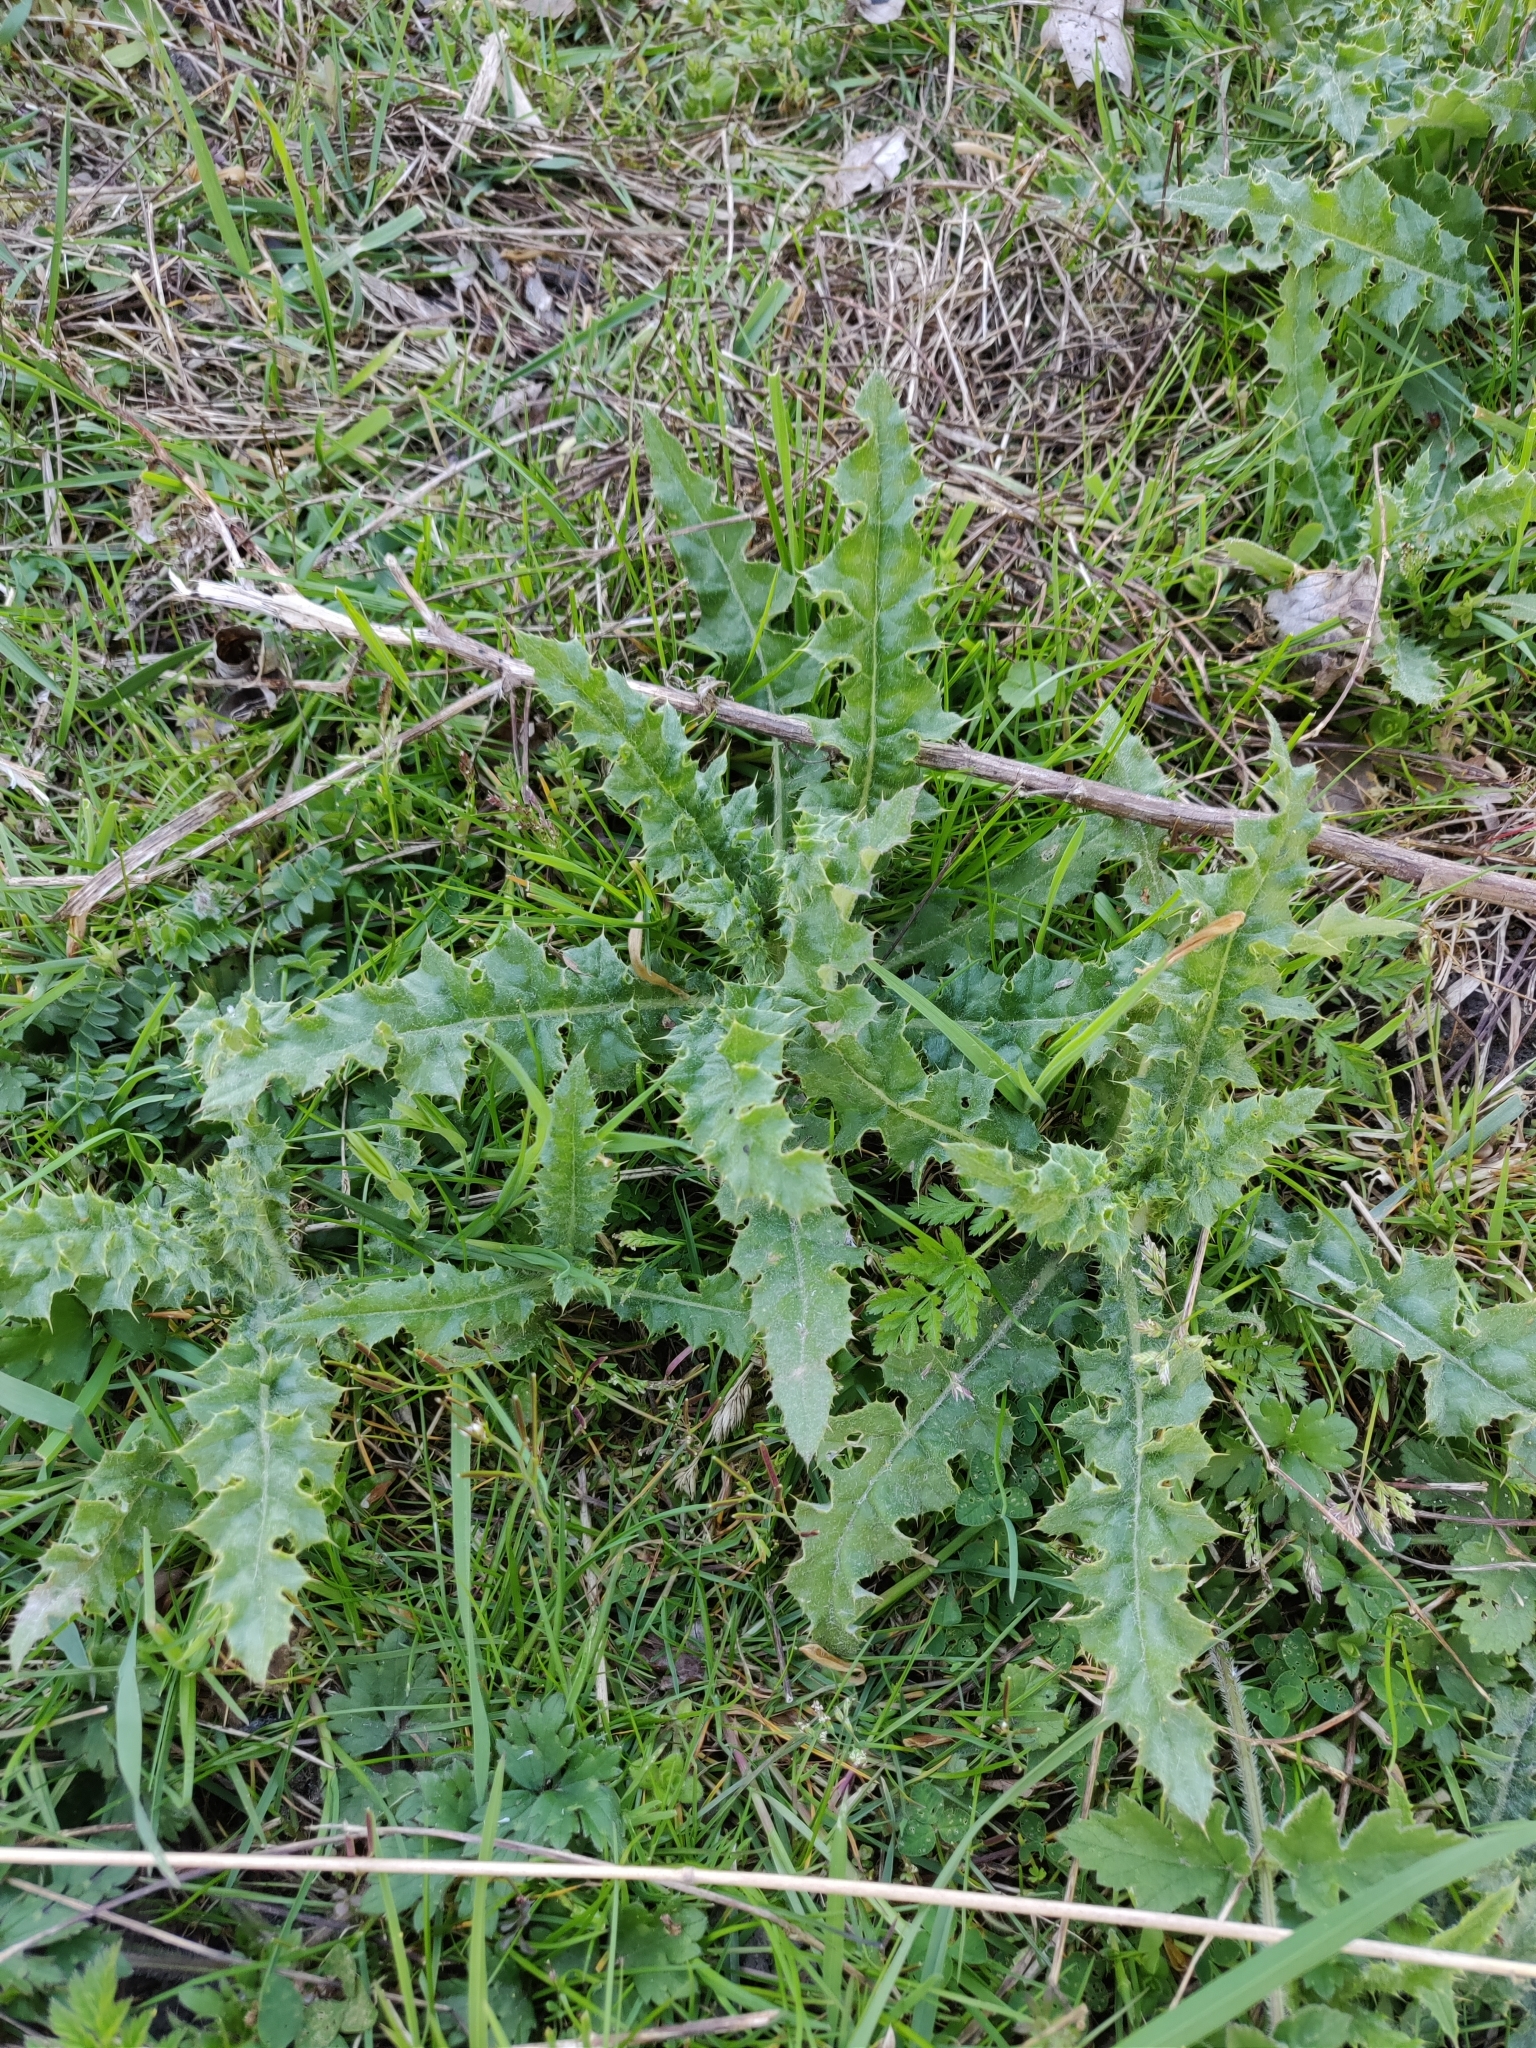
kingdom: Plantae
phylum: Tracheophyta
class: Magnoliopsida
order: Asterales
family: Asteraceae
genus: Cirsium
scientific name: Cirsium arvense
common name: Creeping thistle
